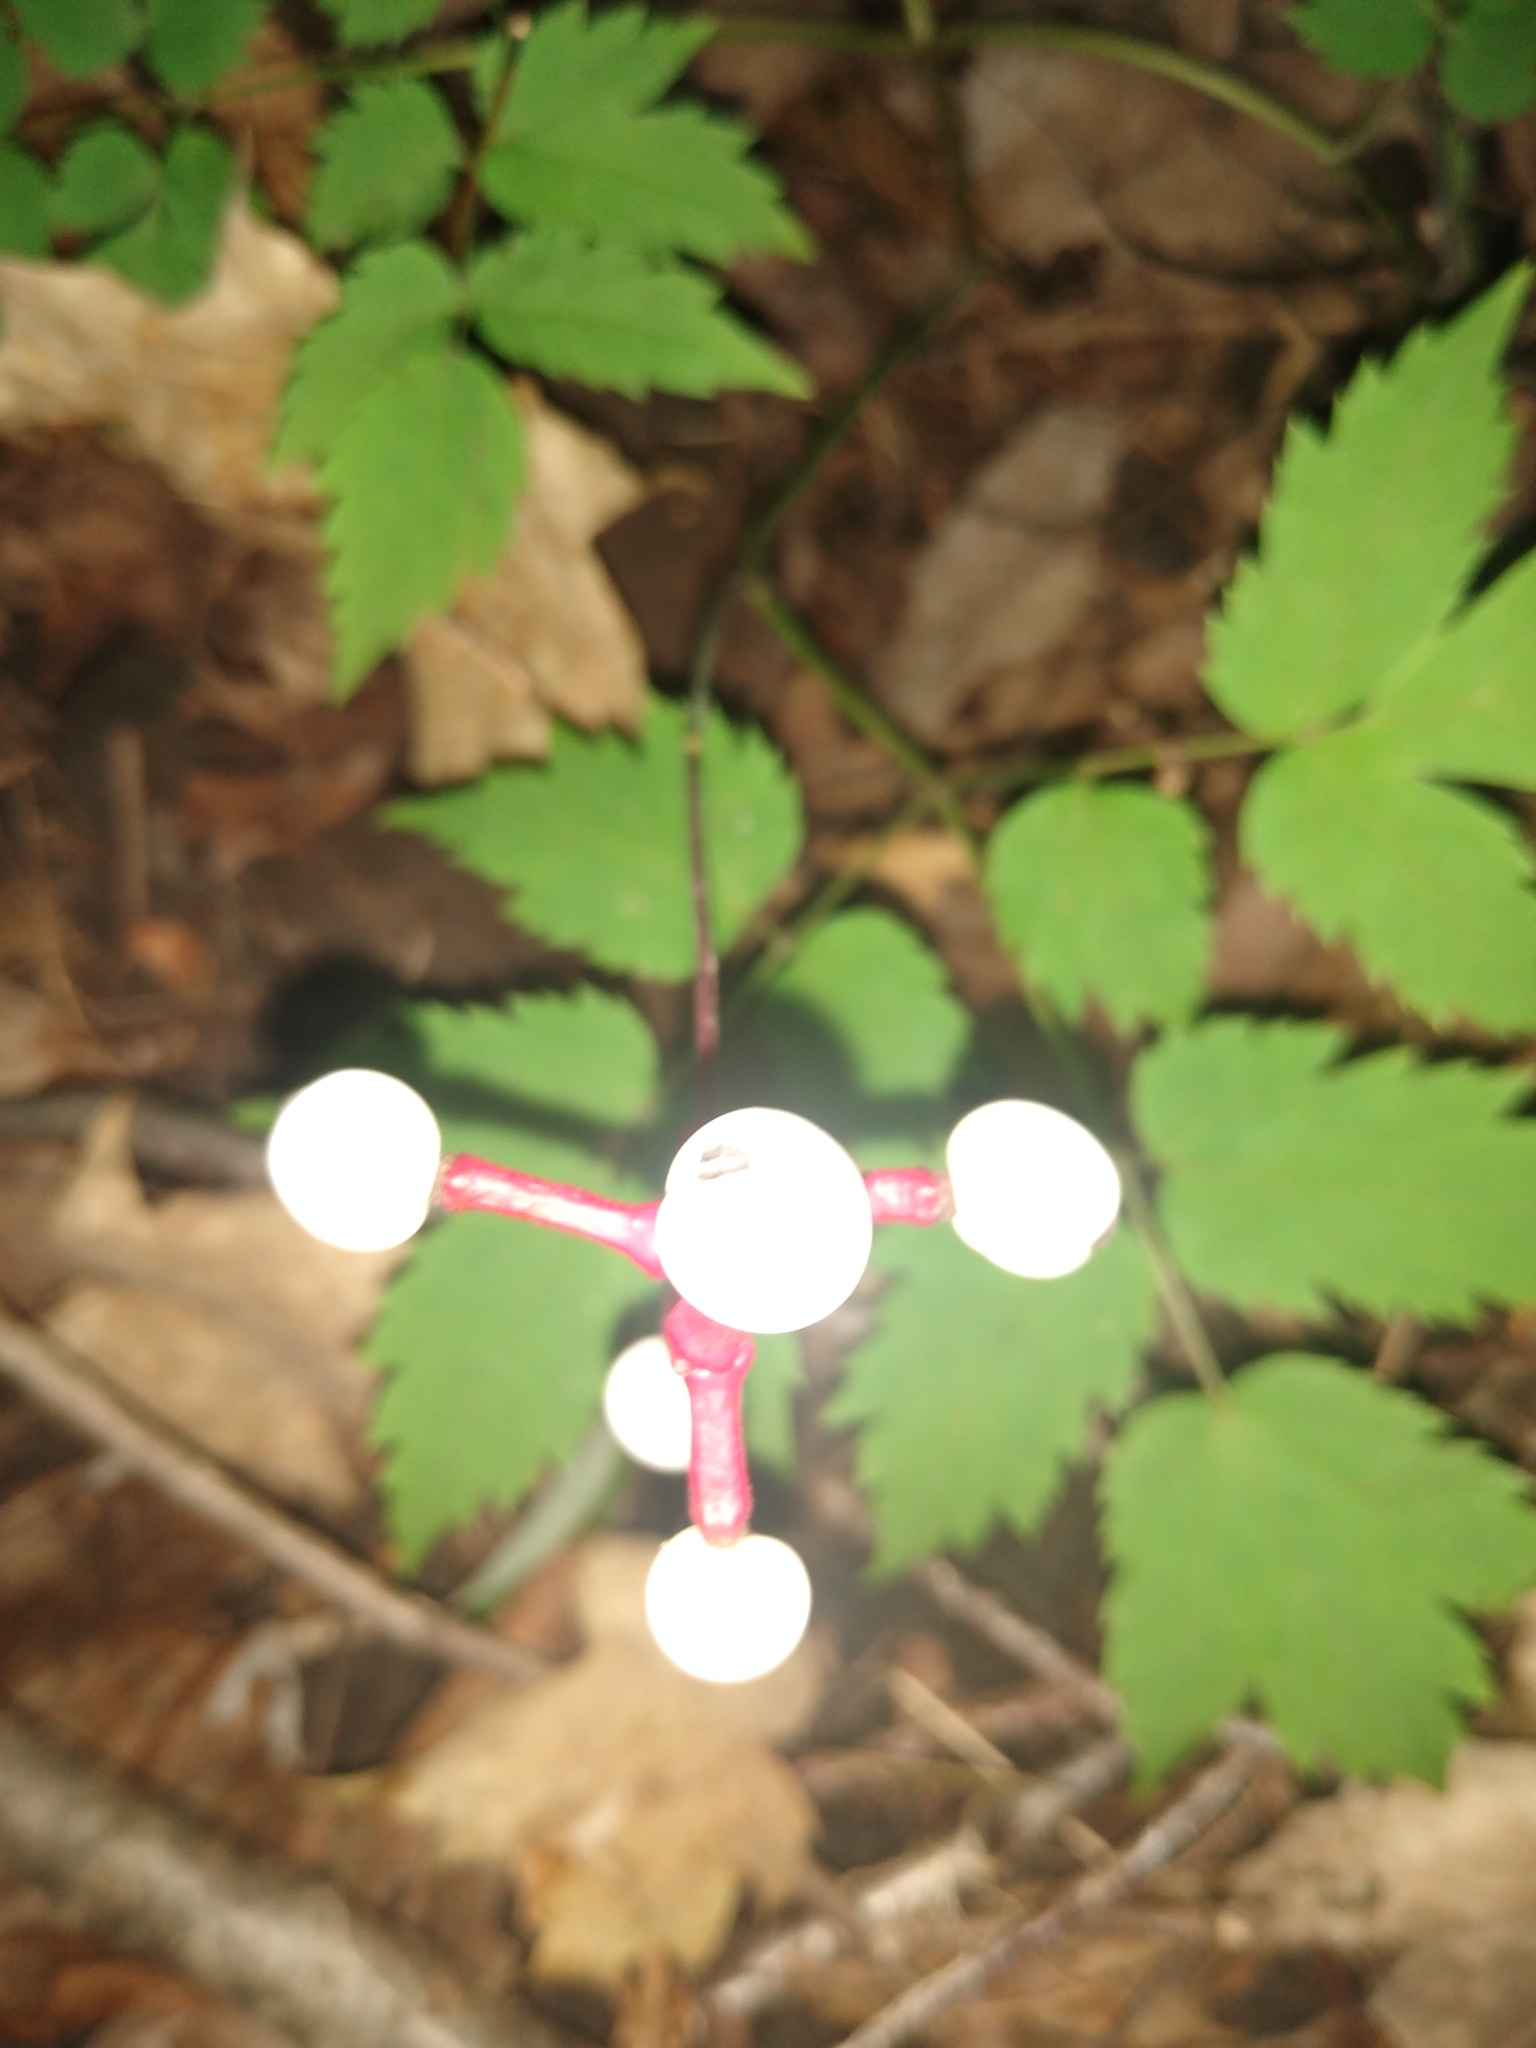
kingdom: Plantae
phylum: Tracheophyta
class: Magnoliopsida
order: Ranunculales
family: Ranunculaceae
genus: Actaea
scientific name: Actaea pachypoda
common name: Doll's-eyes
